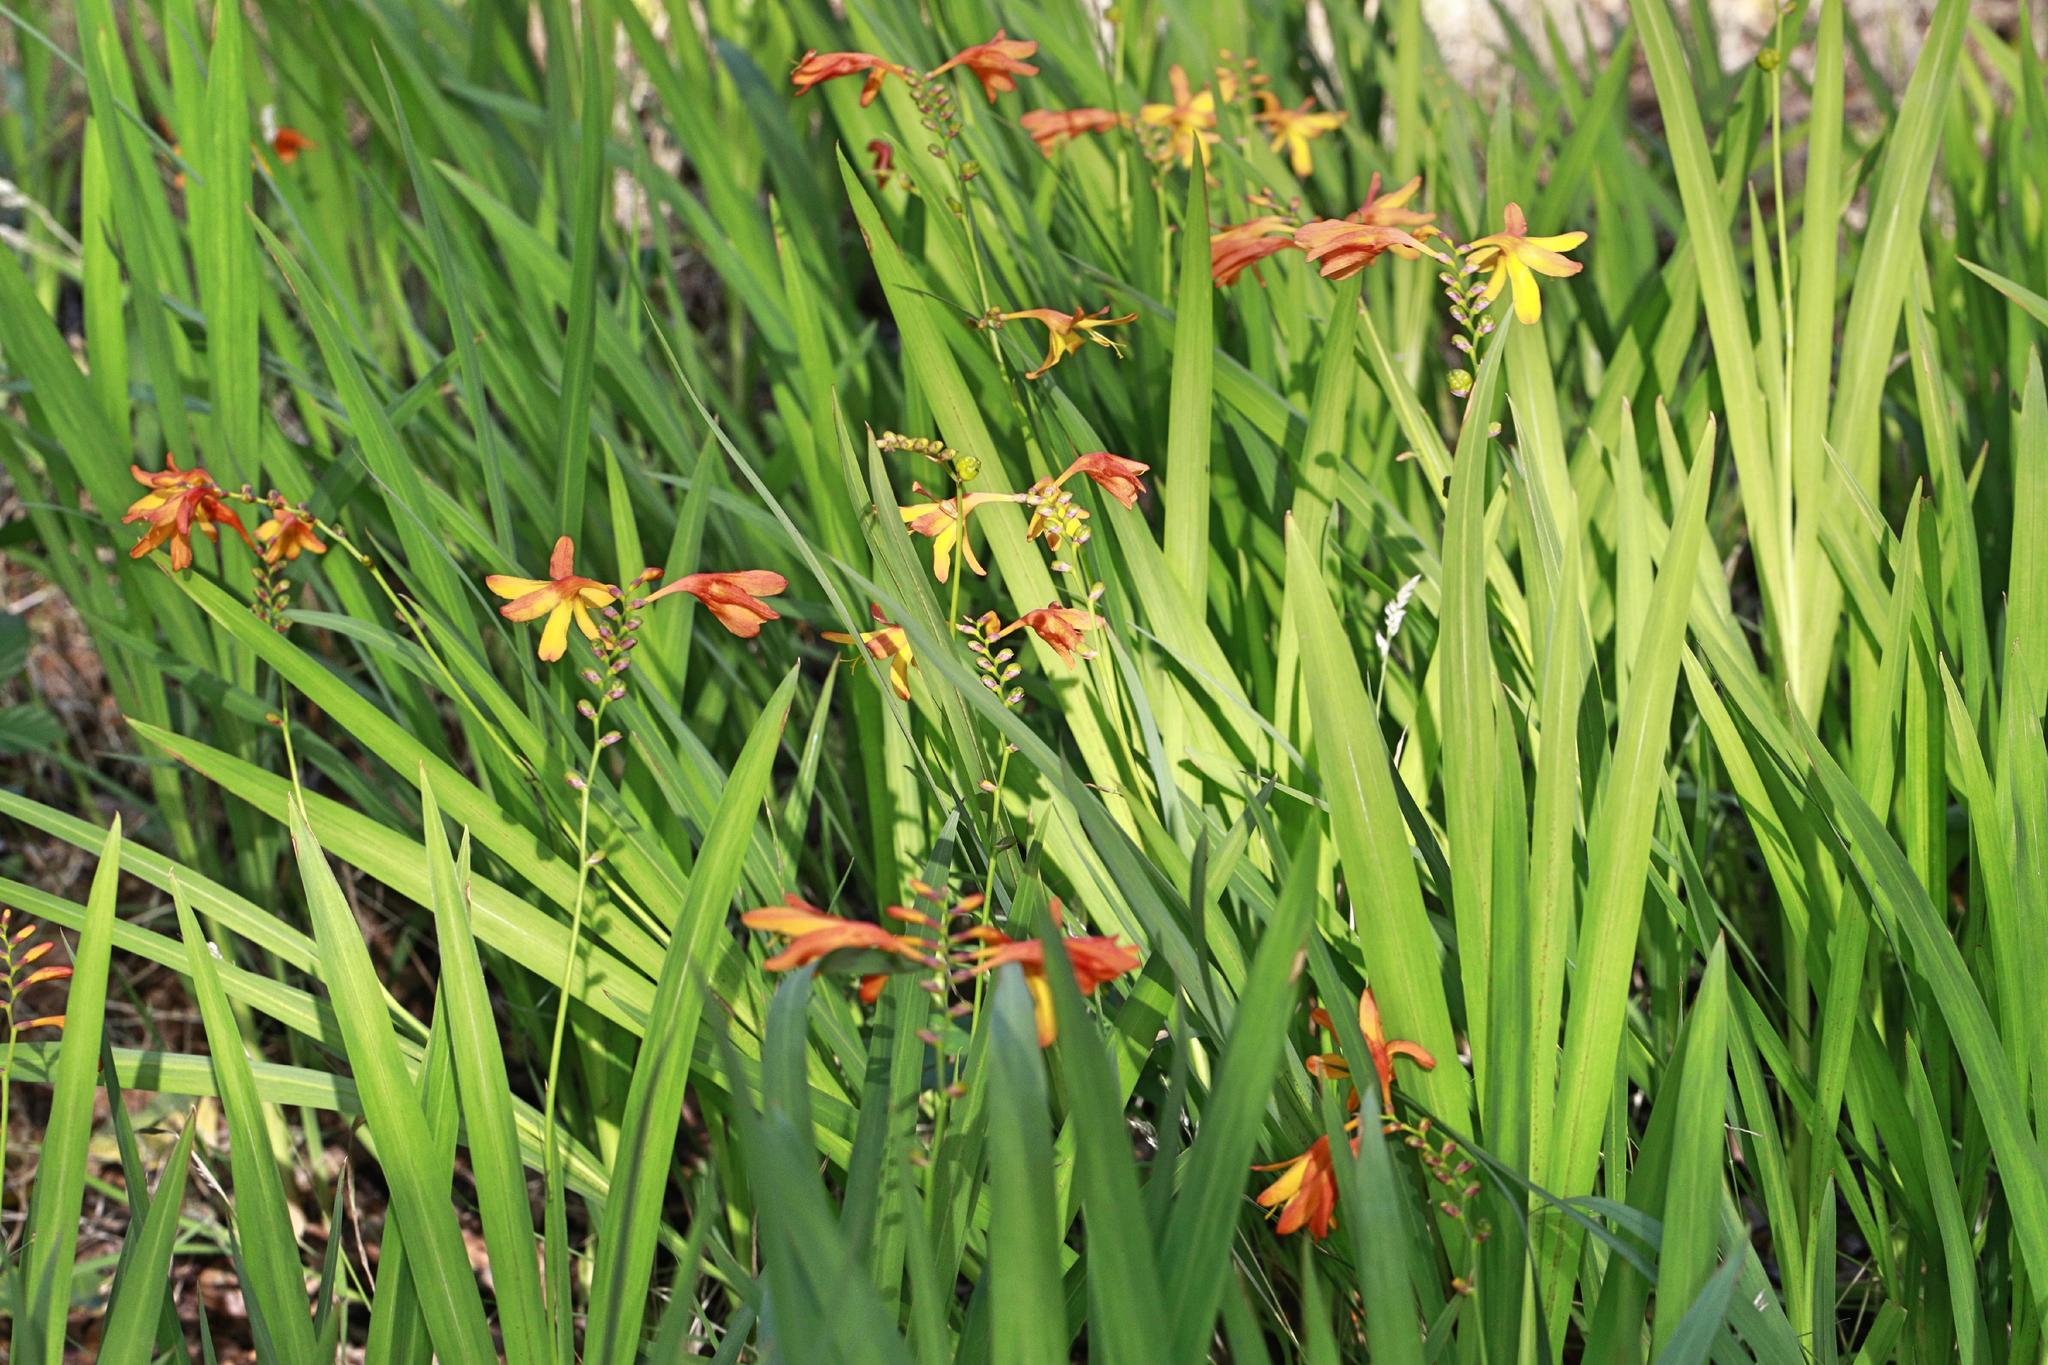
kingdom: Plantae
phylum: Tracheophyta
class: Liliopsida
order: Asparagales
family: Iridaceae
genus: Crocosmia
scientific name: Crocosmia crocosmiiflora
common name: Montbretia
